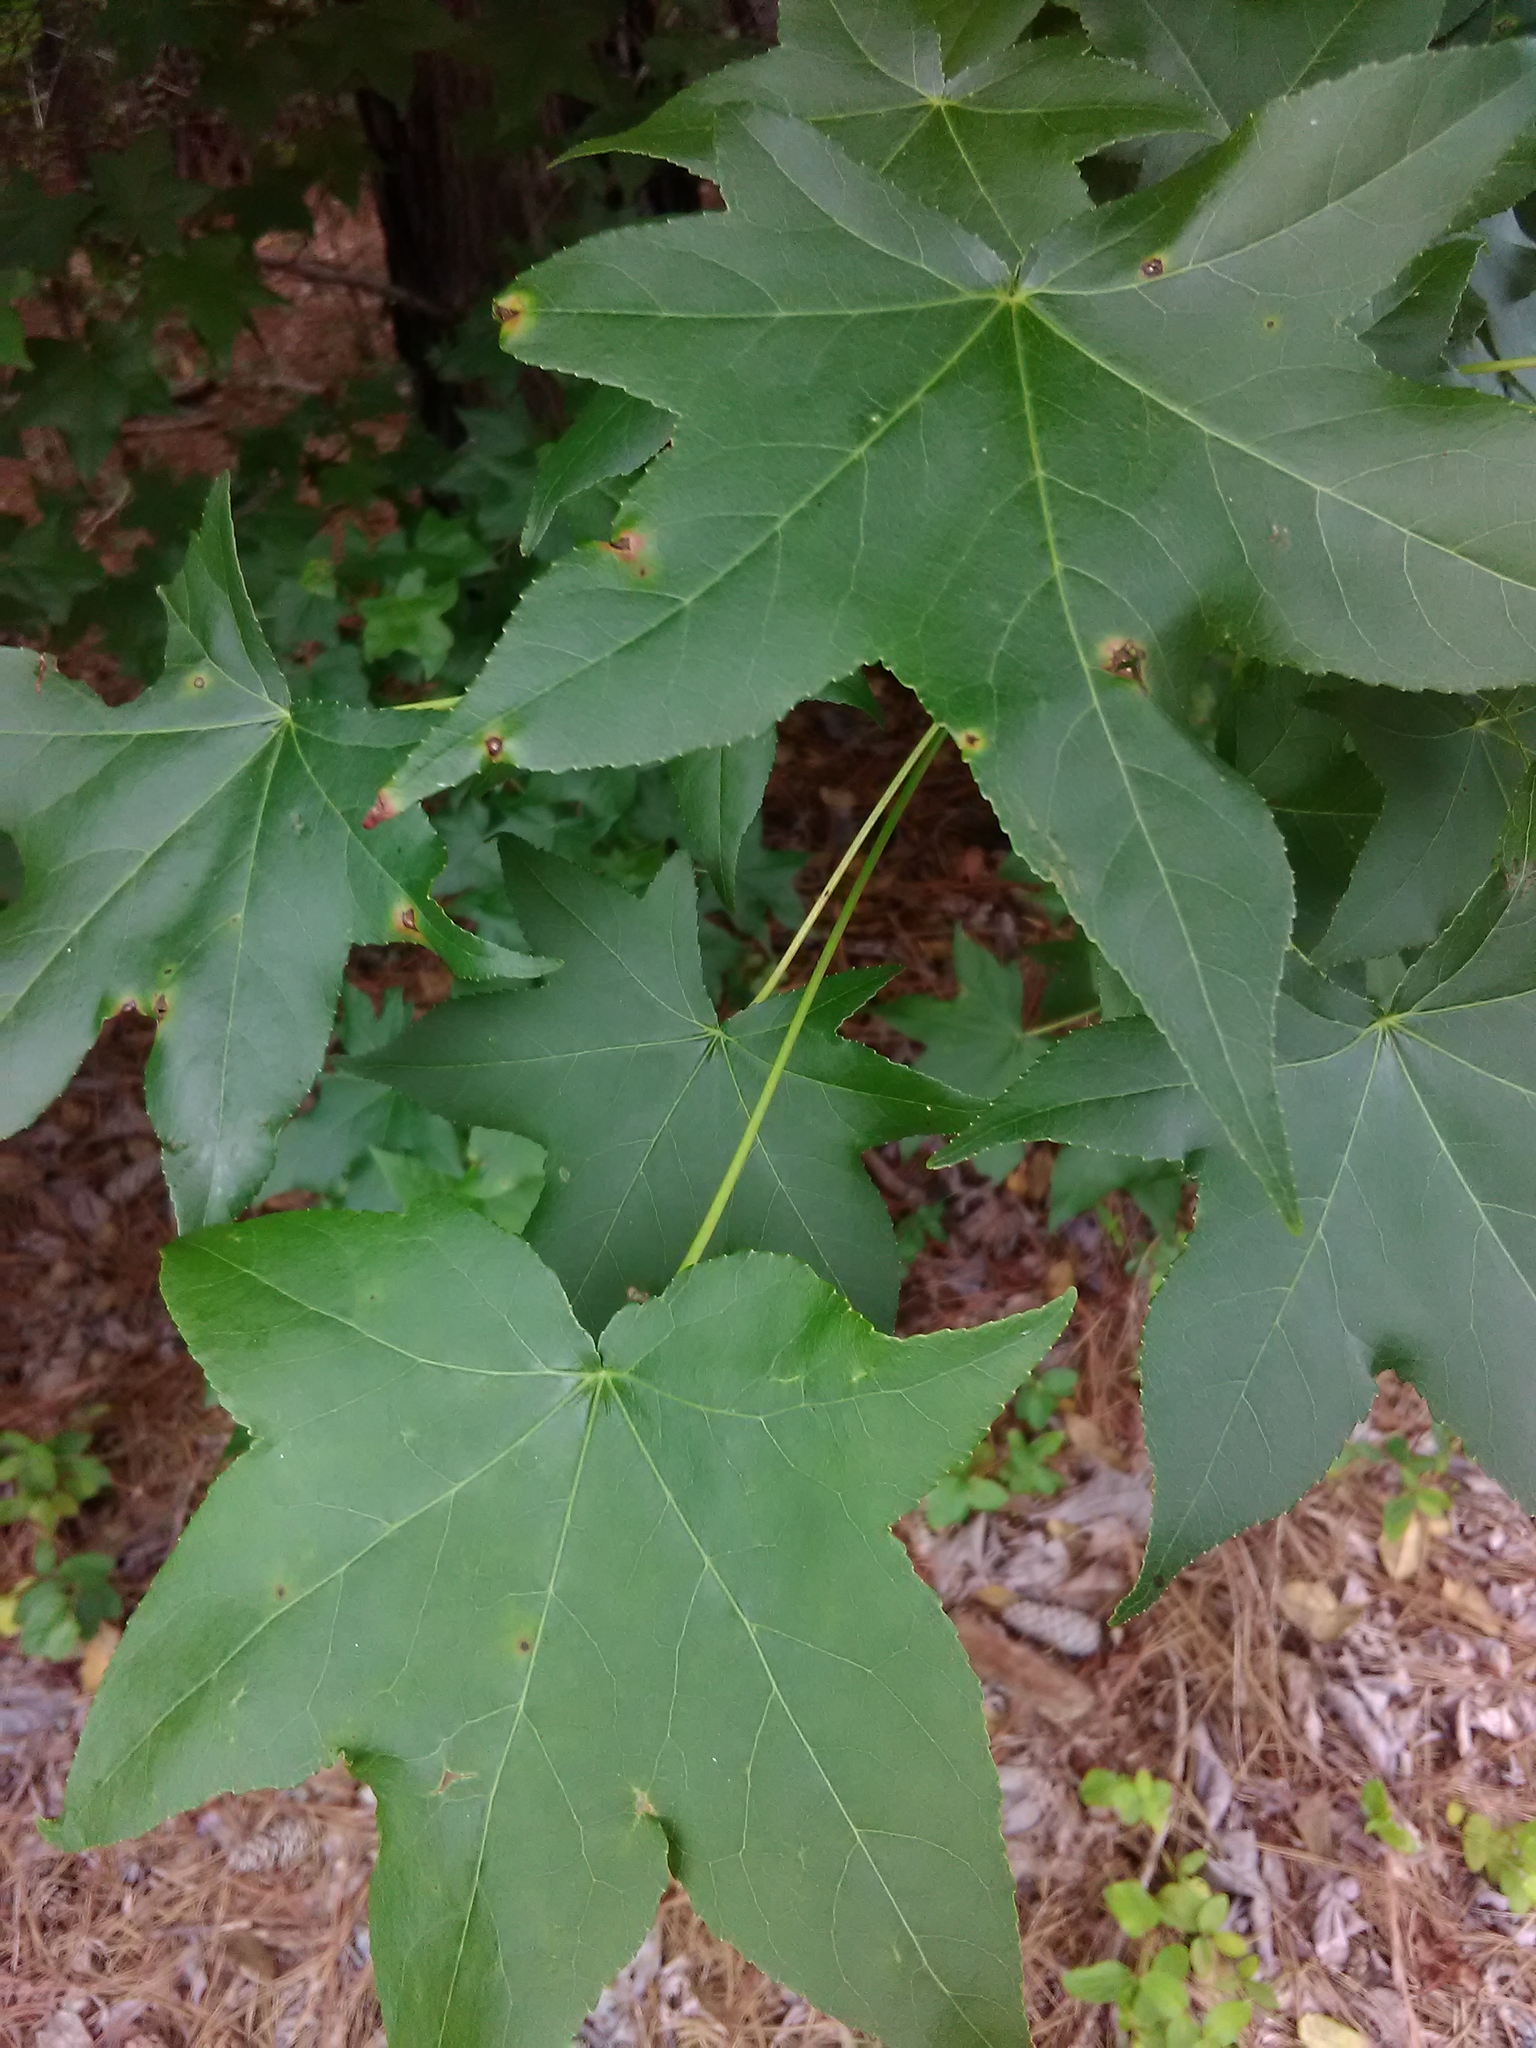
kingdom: Plantae
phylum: Tracheophyta
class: Magnoliopsida
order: Saxifragales
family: Altingiaceae
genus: Liquidambar
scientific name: Liquidambar styraciflua
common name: Sweet gum
